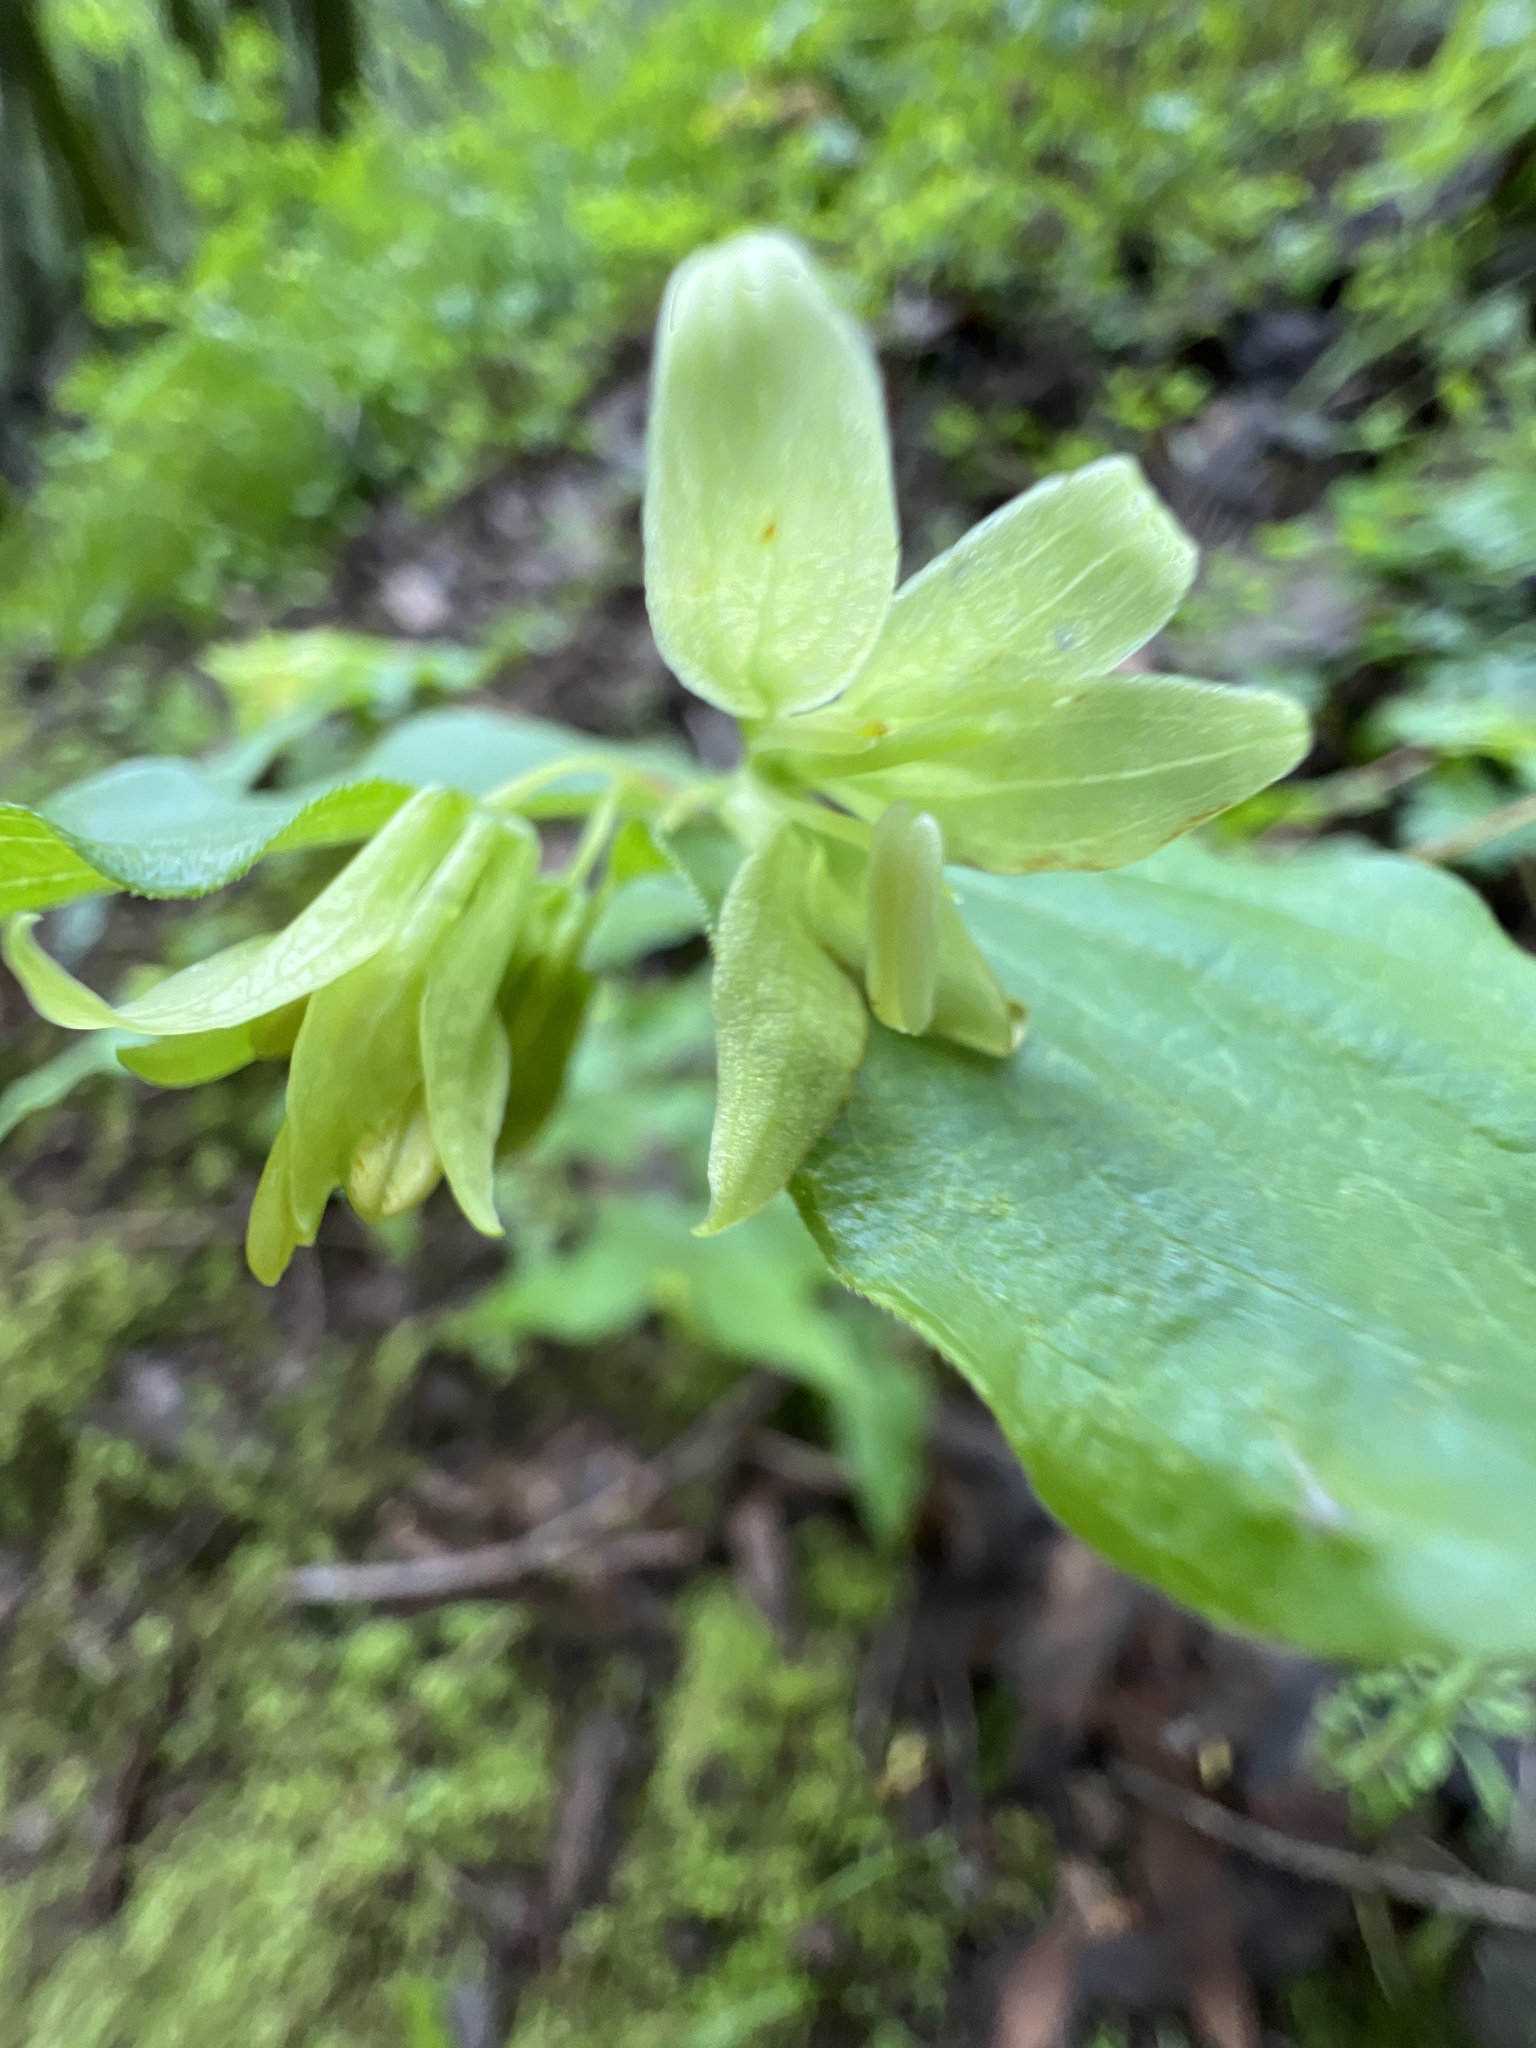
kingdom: Plantae
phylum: Tracheophyta
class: Liliopsida
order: Liliales
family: Liliaceae
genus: Prosartes
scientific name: Prosartes hookeri
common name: Fairy-bells
